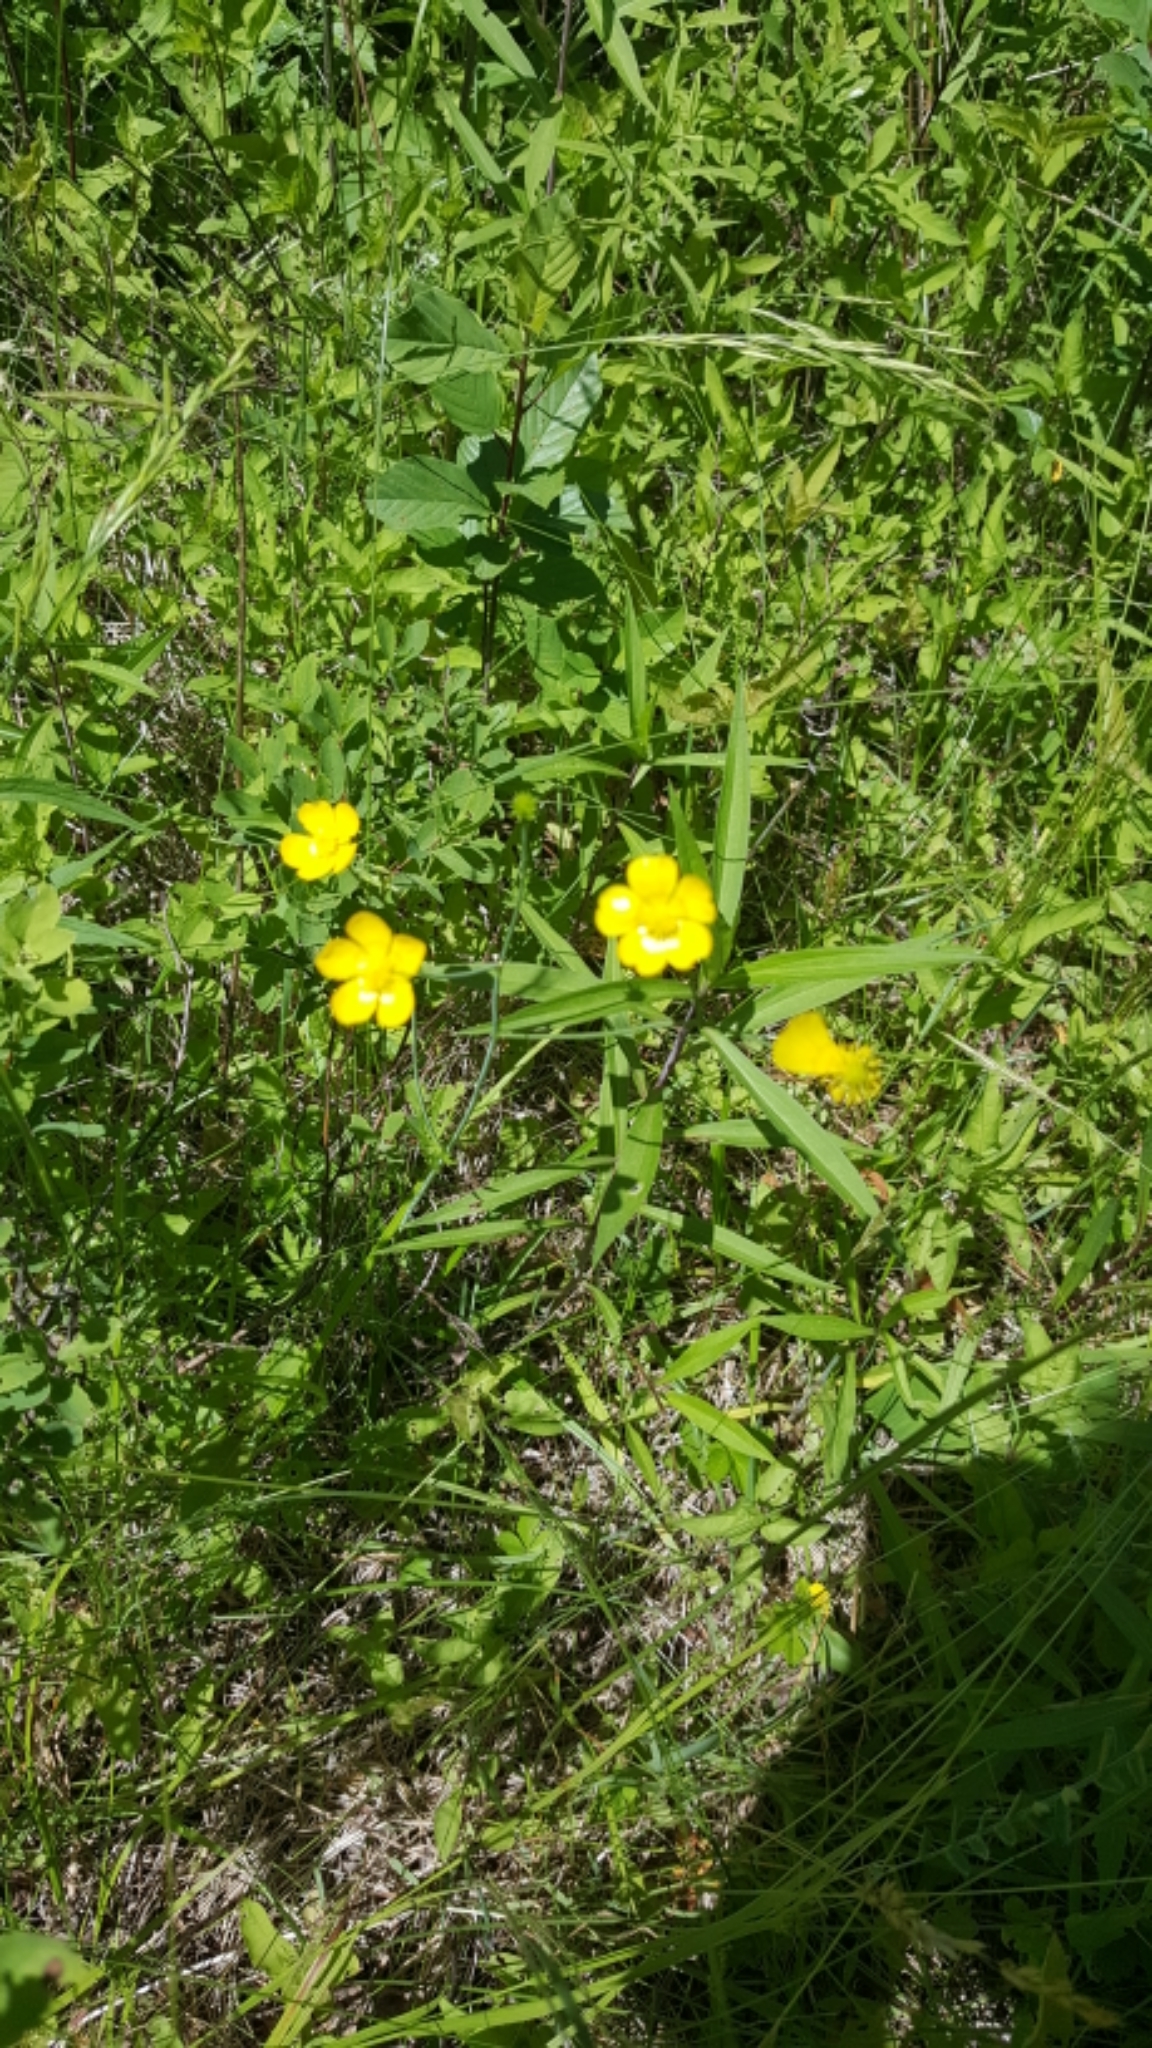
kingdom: Plantae
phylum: Tracheophyta
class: Magnoliopsida
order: Ranunculales
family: Ranunculaceae
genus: Ranunculus
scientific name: Ranunculus acris
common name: Meadow buttercup
